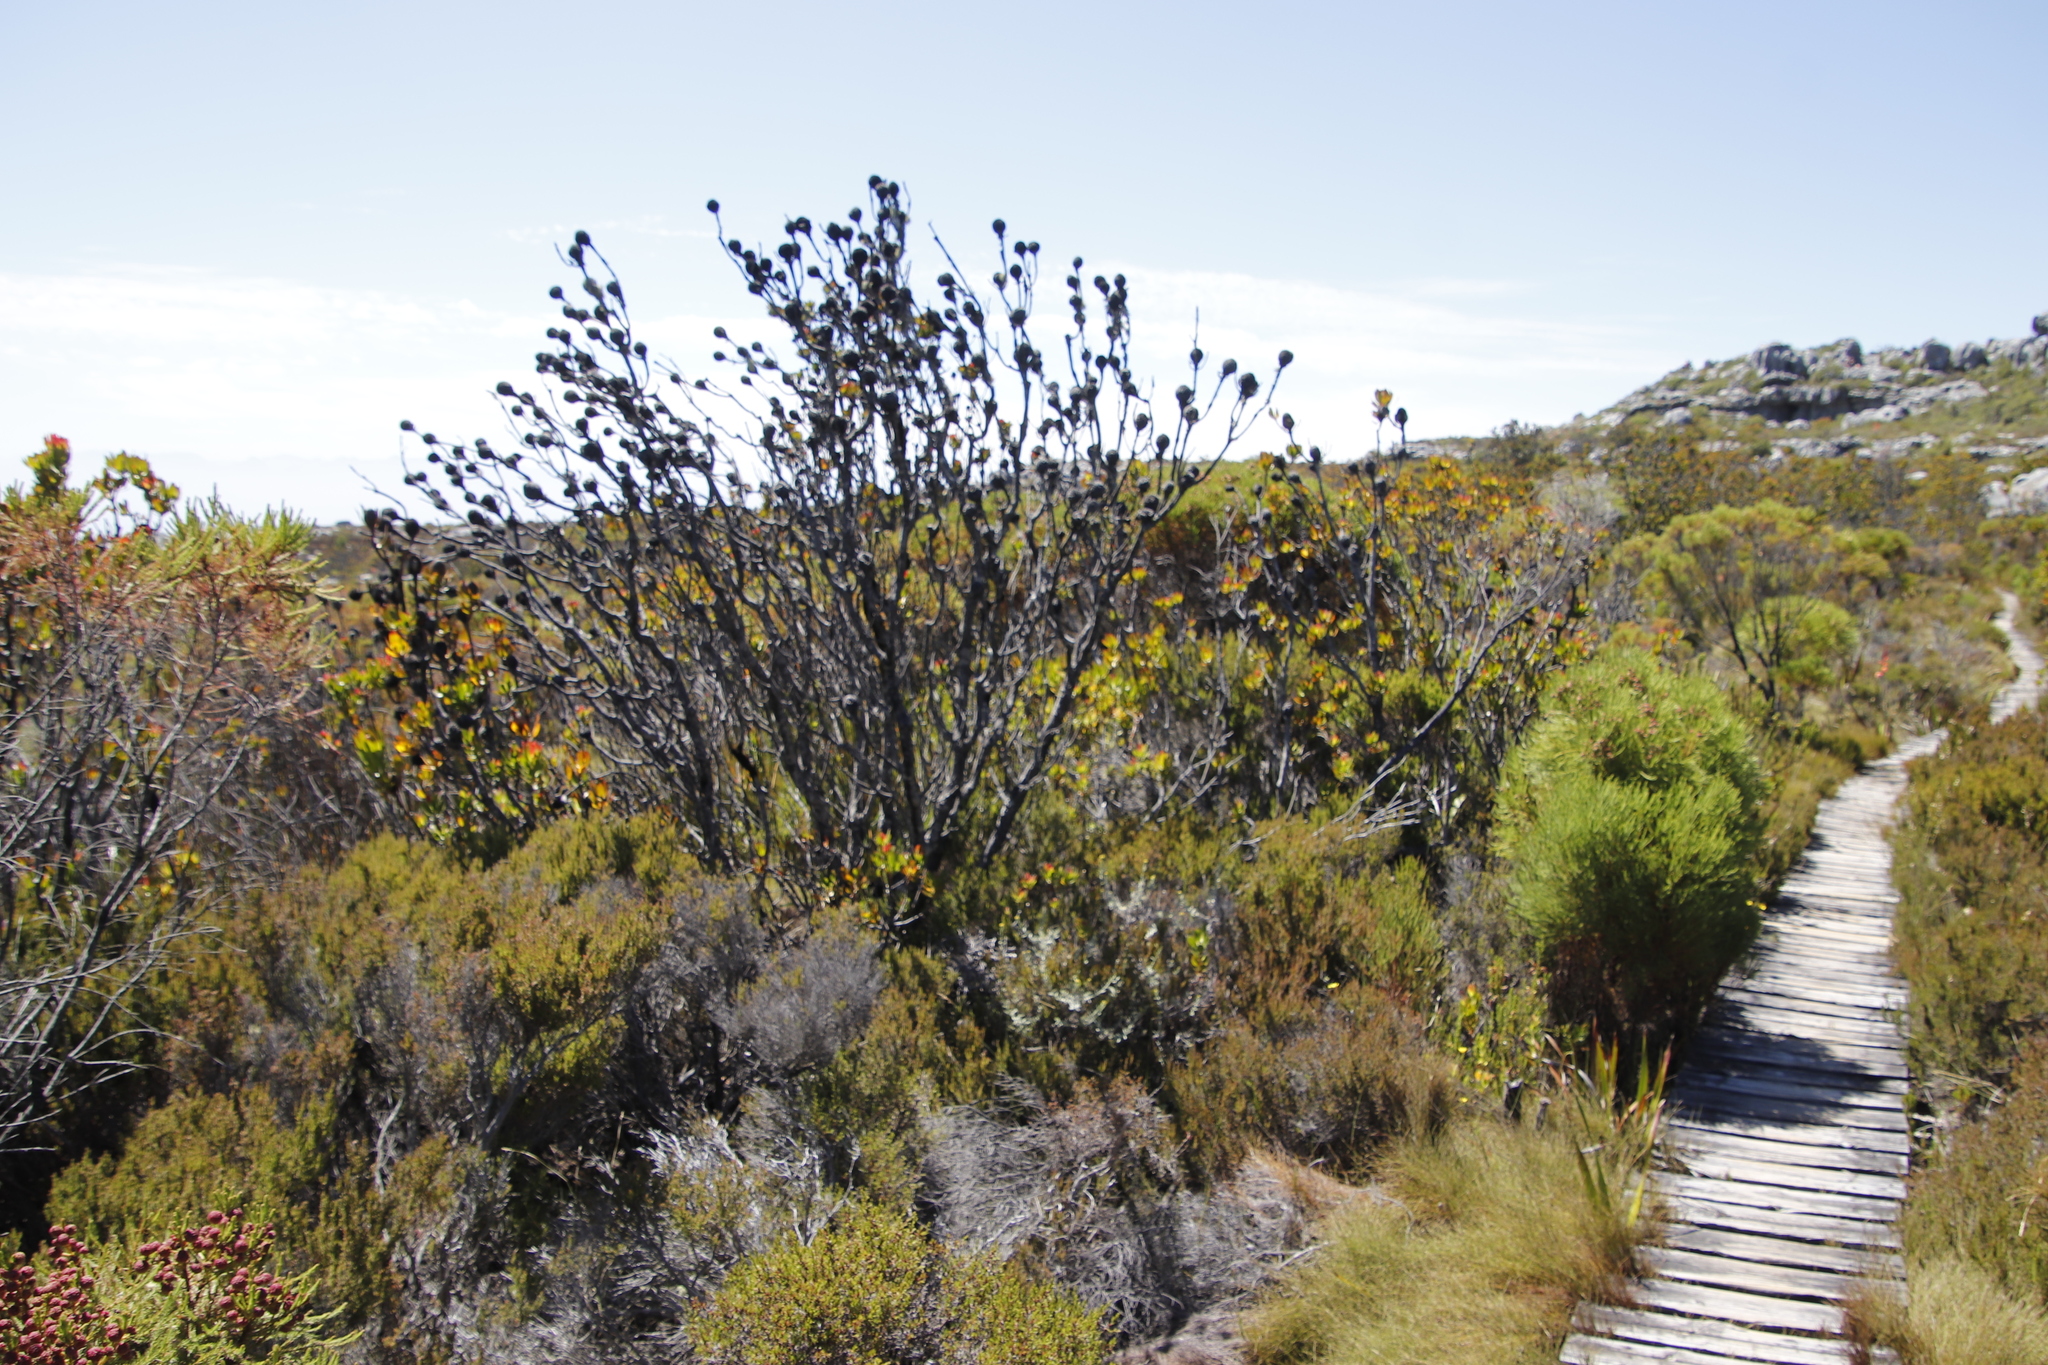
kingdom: Plantae
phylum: Tracheophyta
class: Magnoliopsida
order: Proteales
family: Proteaceae
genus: Leucadendron
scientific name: Leucadendron strobilinum
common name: Mountain rose
